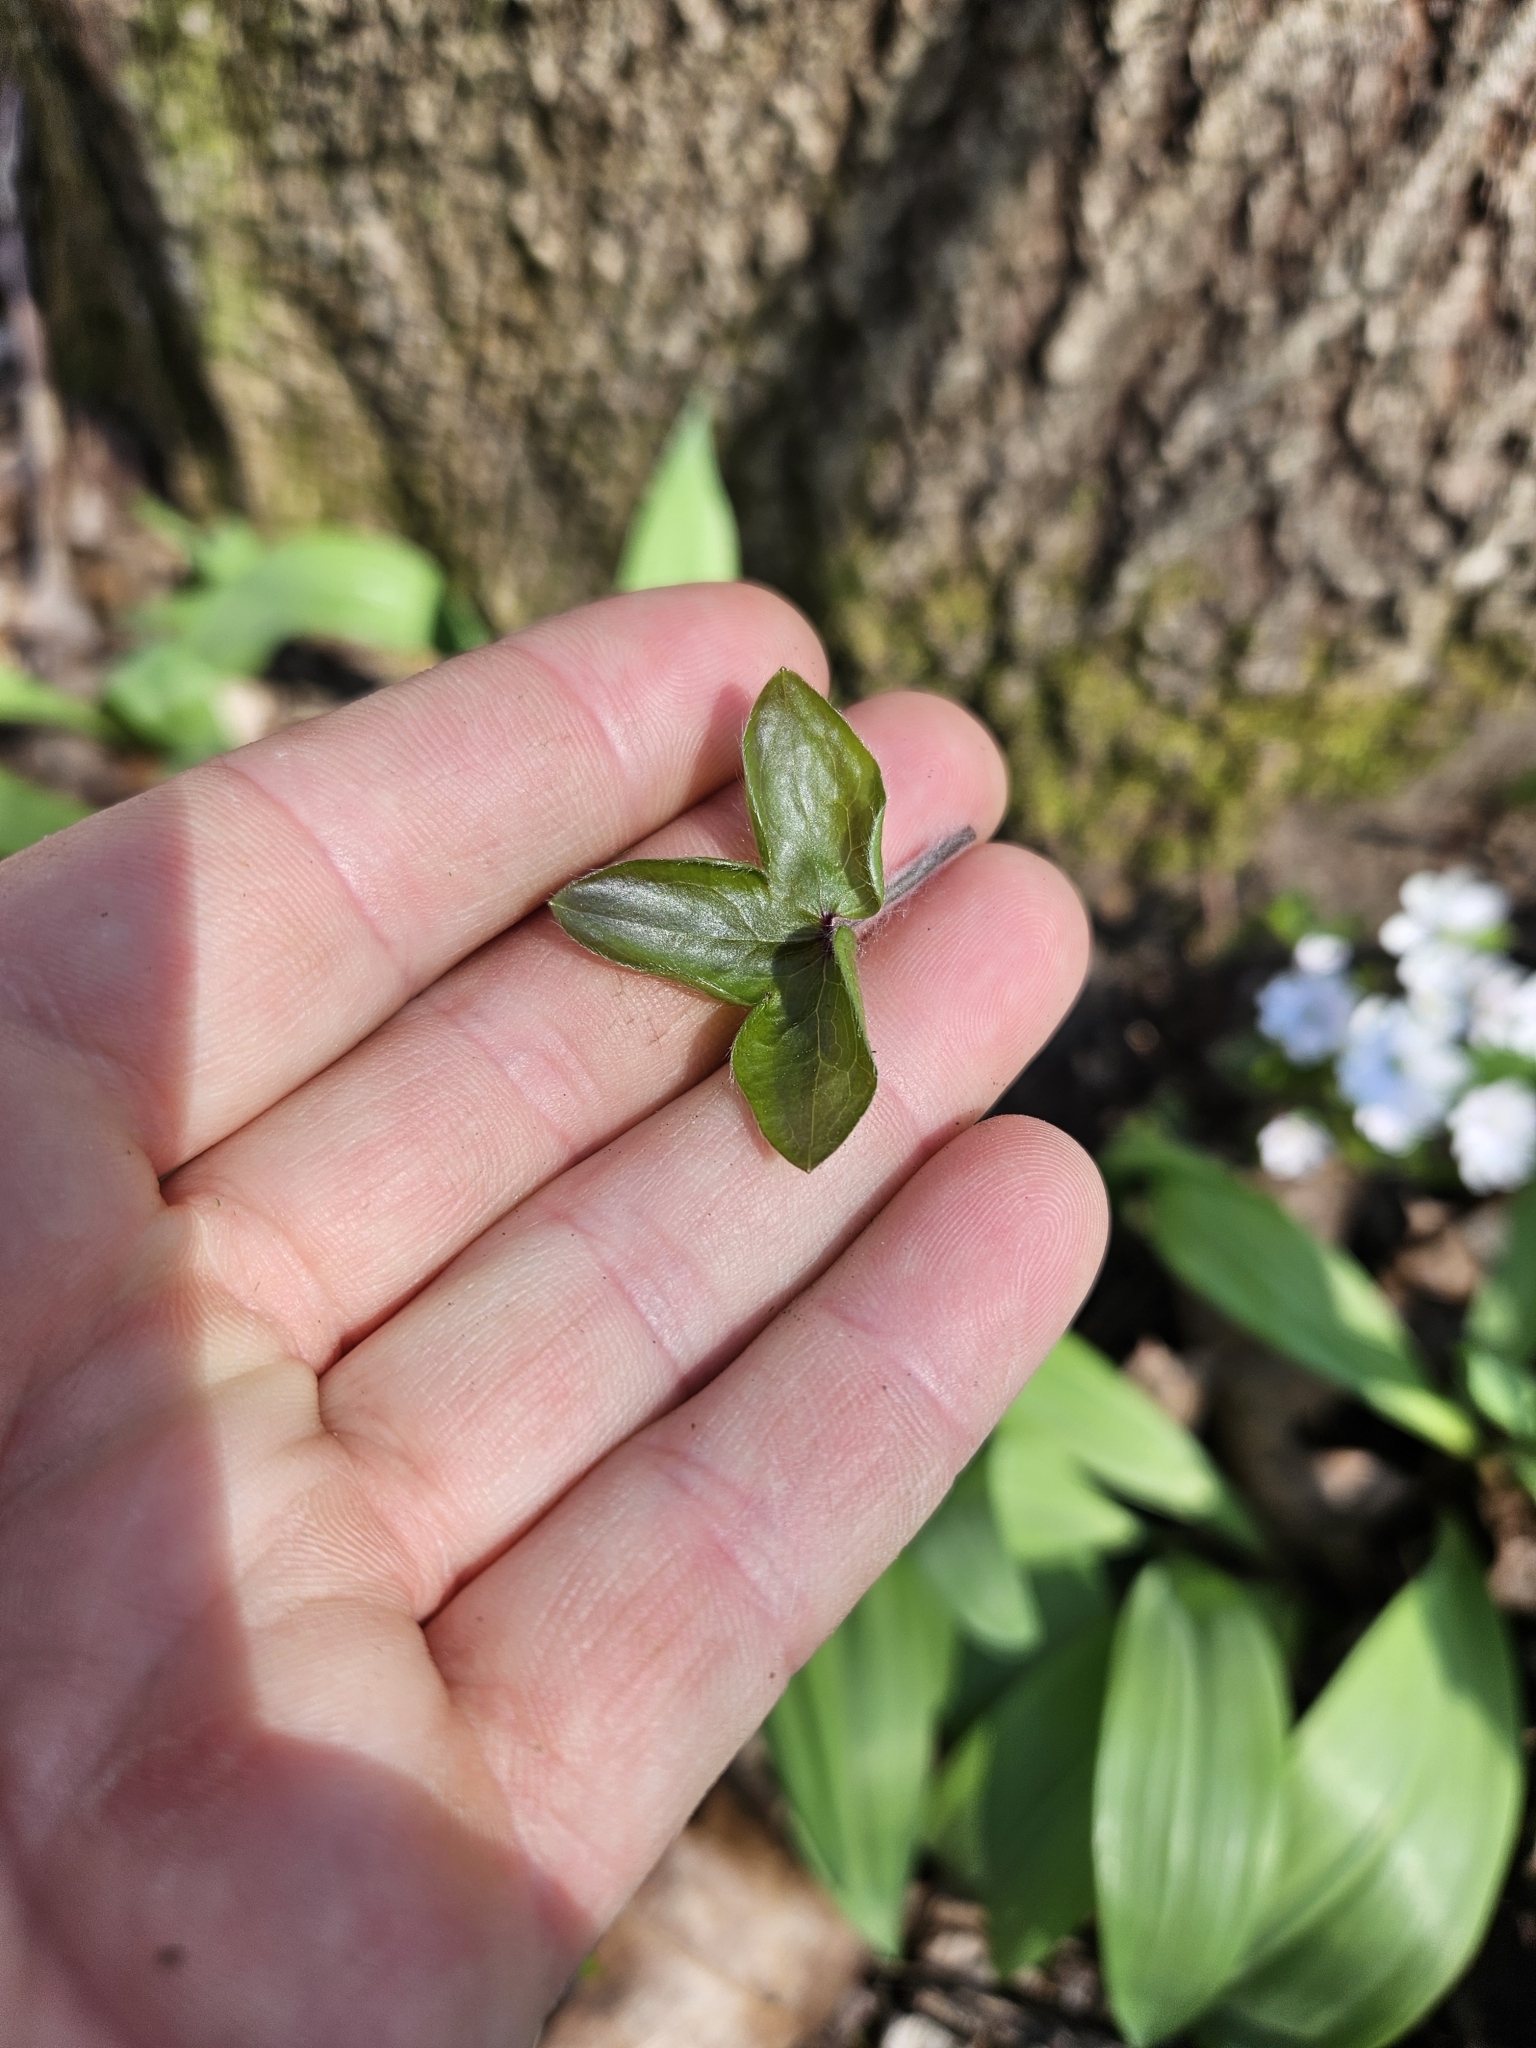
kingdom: Plantae
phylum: Tracheophyta
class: Magnoliopsida
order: Ranunculales
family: Ranunculaceae
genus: Hepatica
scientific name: Hepatica acutiloba
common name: Sharp-lobed hepatica
